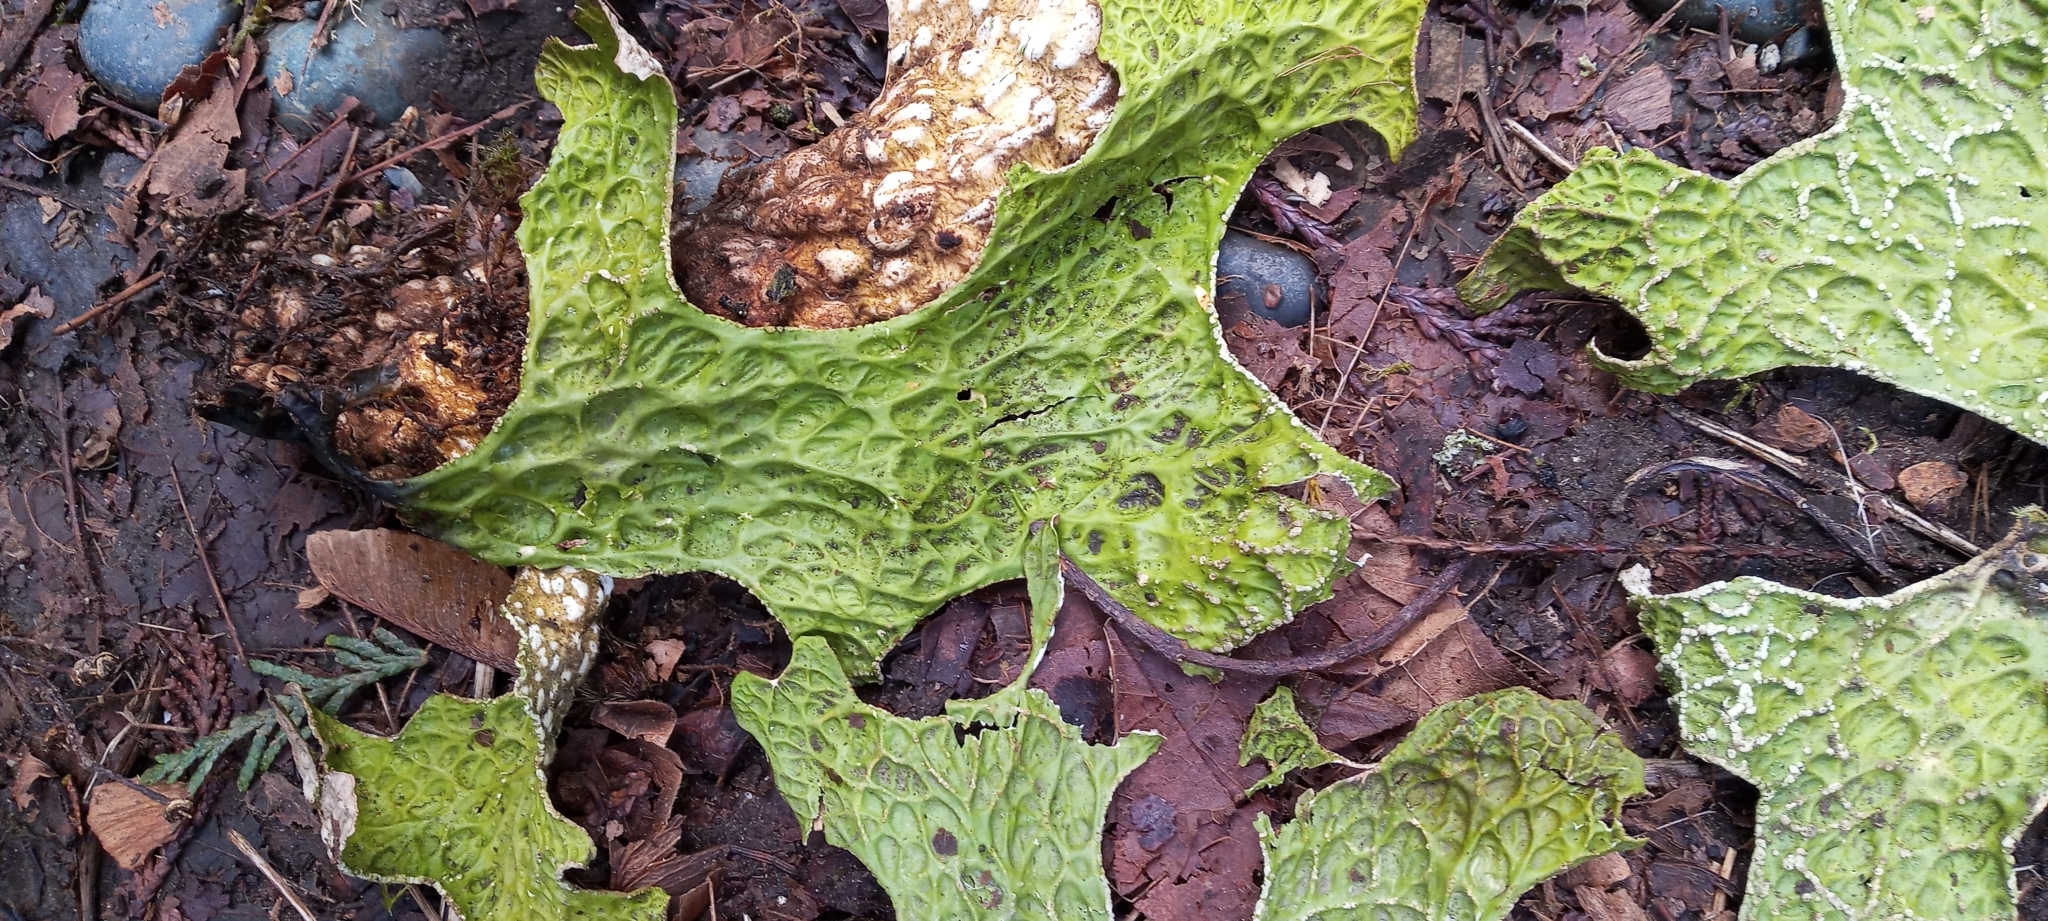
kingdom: Fungi
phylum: Ascomycota
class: Lecanoromycetes
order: Peltigerales
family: Lobariaceae
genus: Lobaria
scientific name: Lobaria pulmonaria
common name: Lungwort
